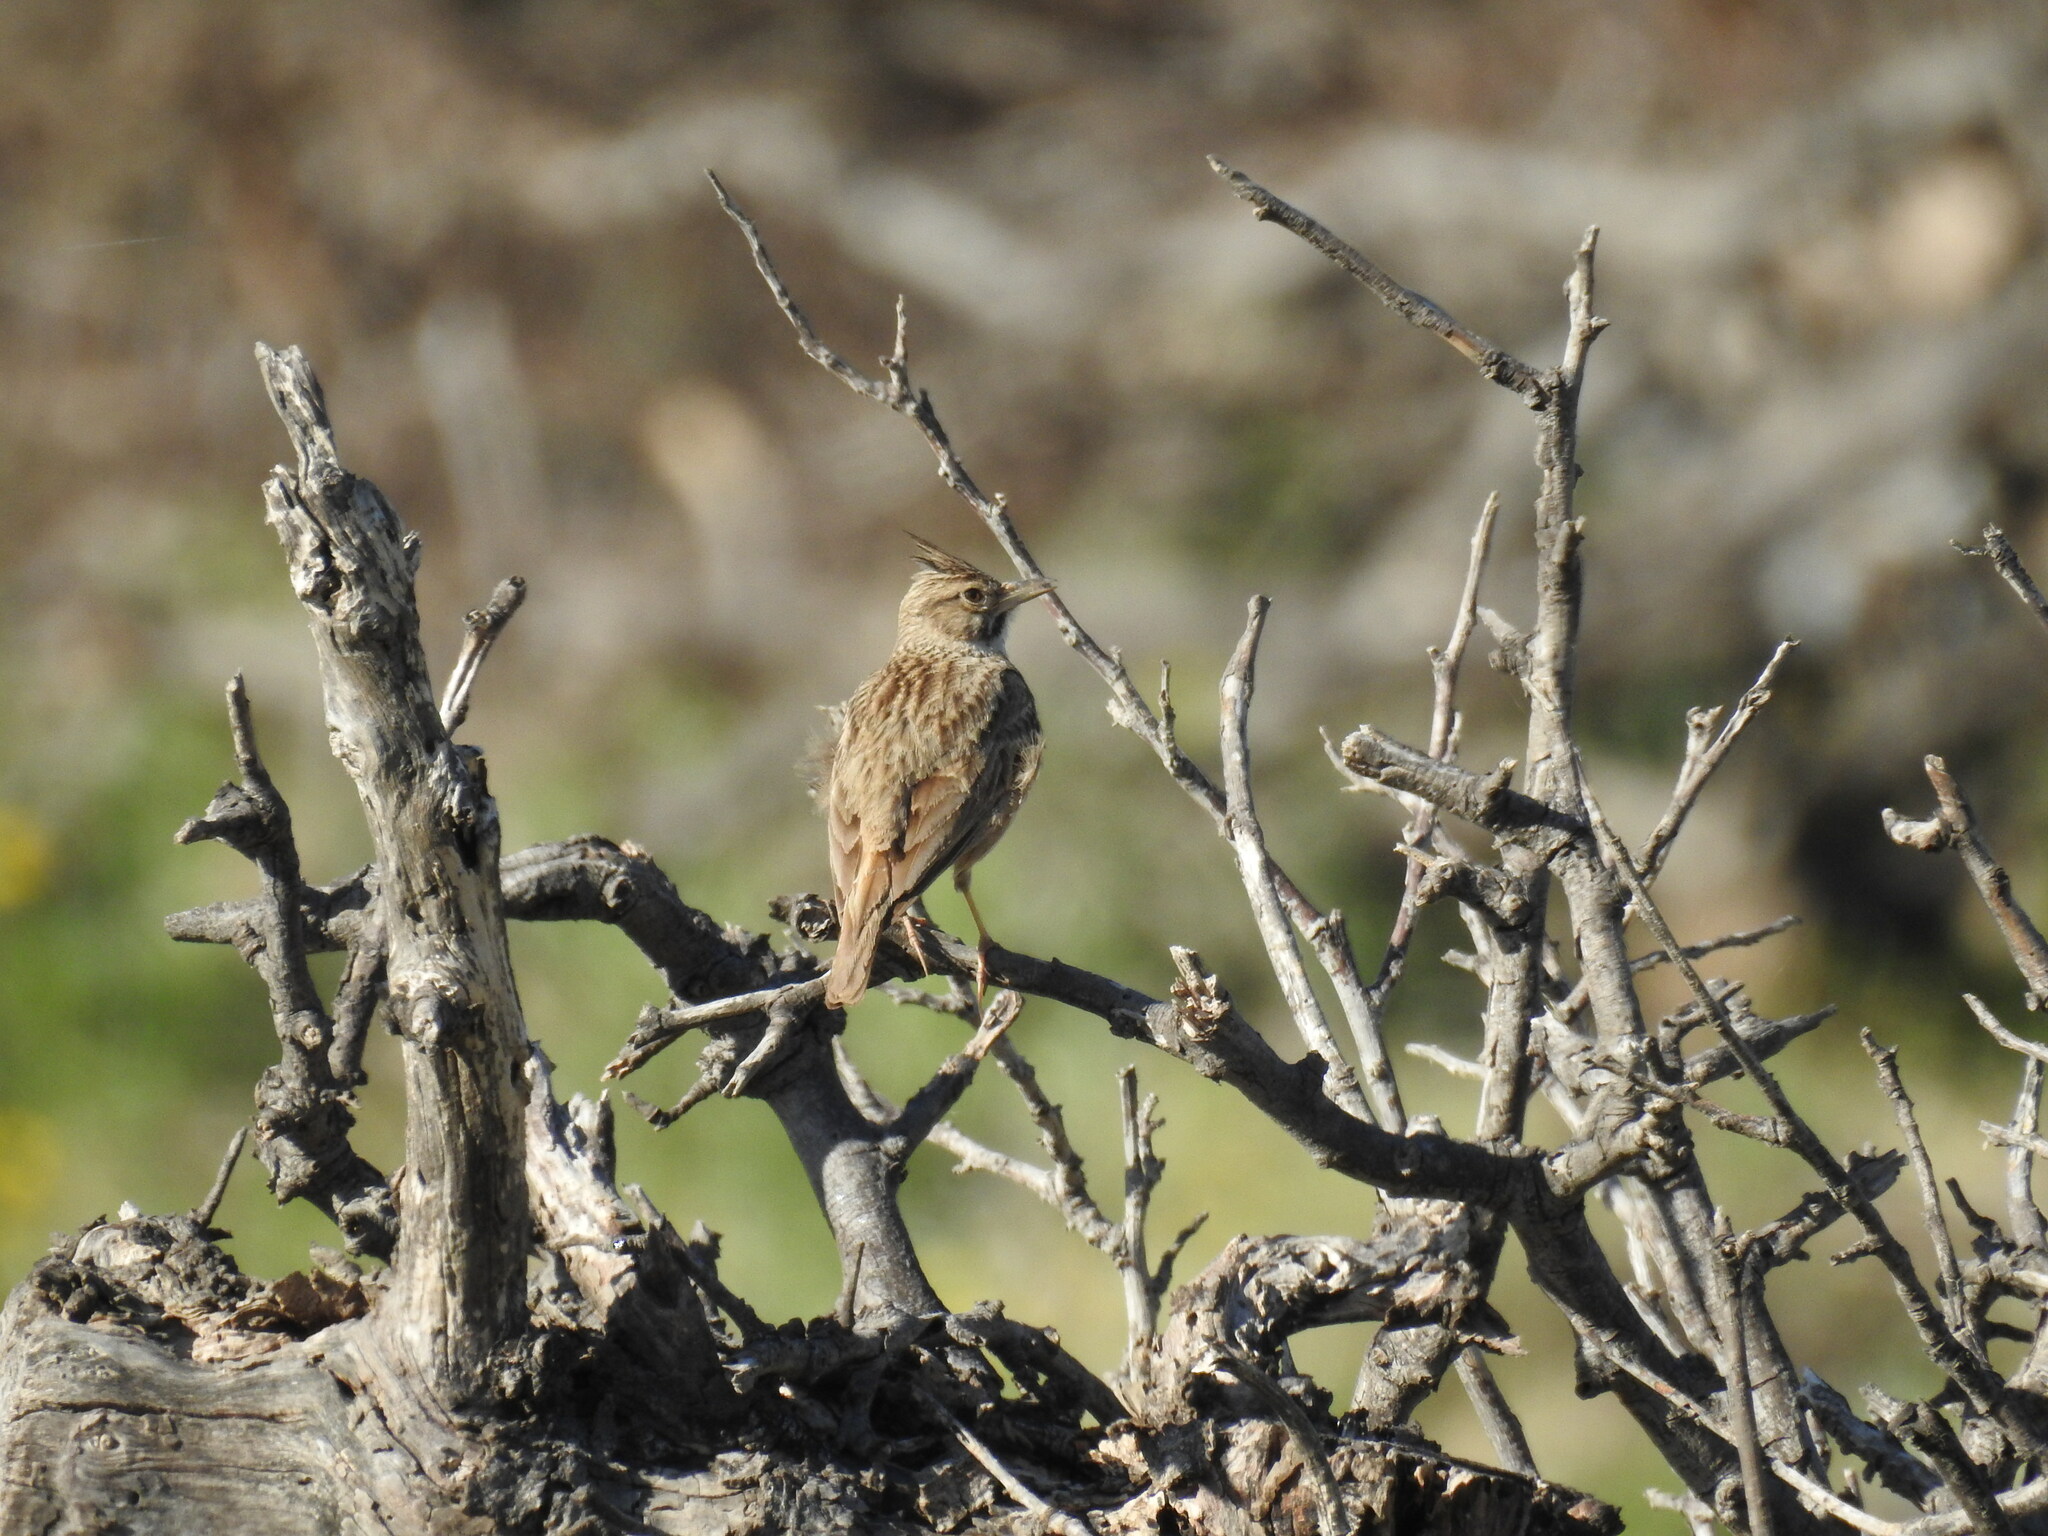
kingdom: Animalia
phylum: Chordata
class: Aves
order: Passeriformes
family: Alaudidae
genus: Galerida
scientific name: Galerida cristata
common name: Crested lark
